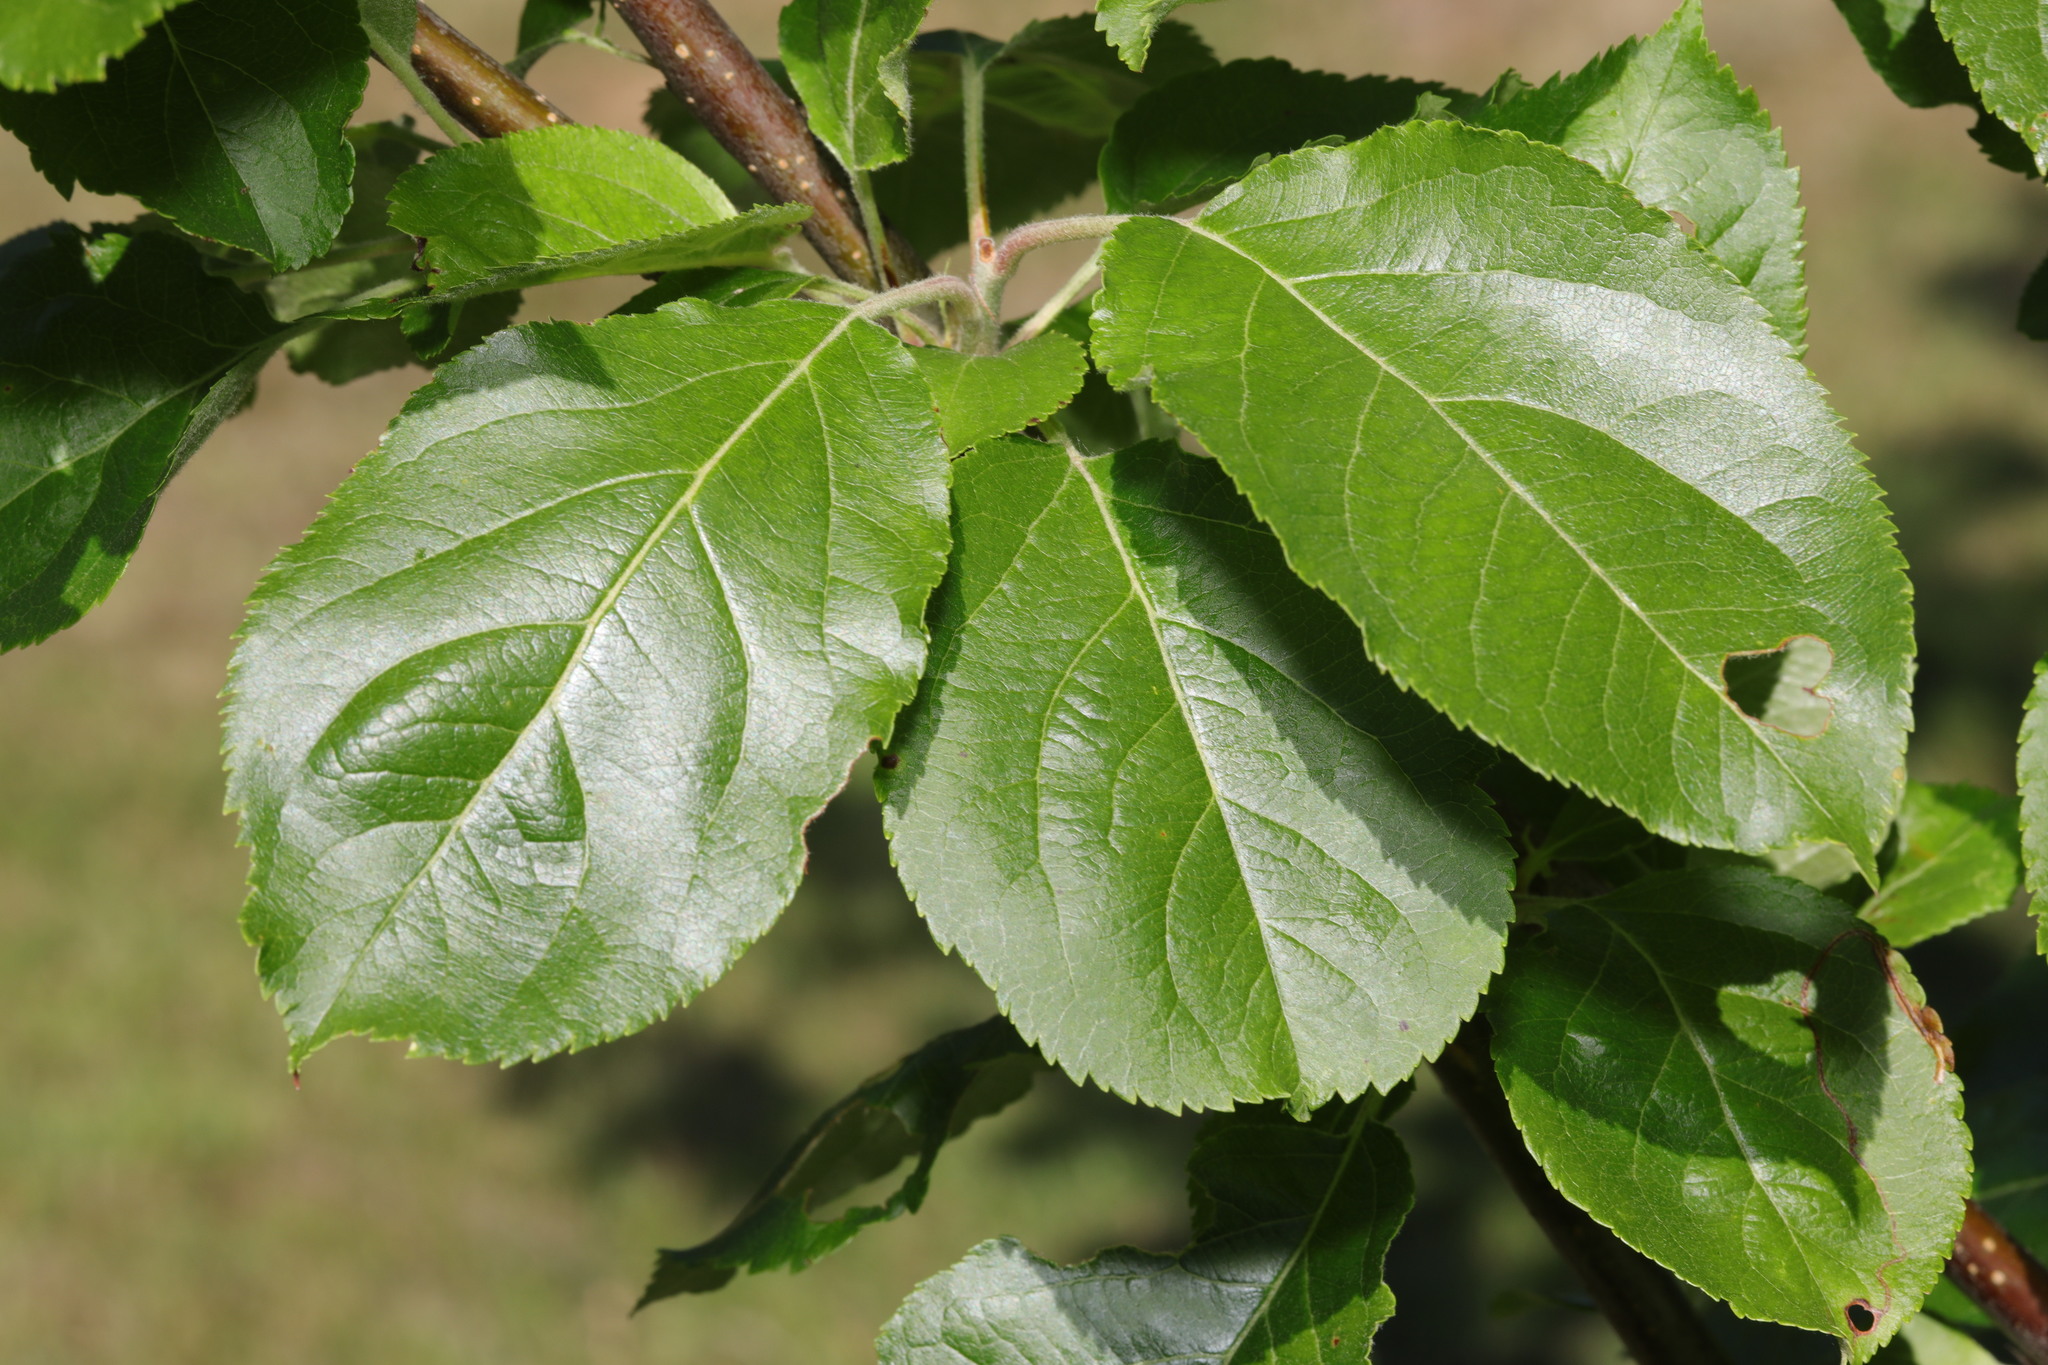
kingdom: Plantae
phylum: Tracheophyta
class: Magnoliopsida
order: Rosales
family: Rosaceae
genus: Malus
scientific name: Malus domestica
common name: Apple
